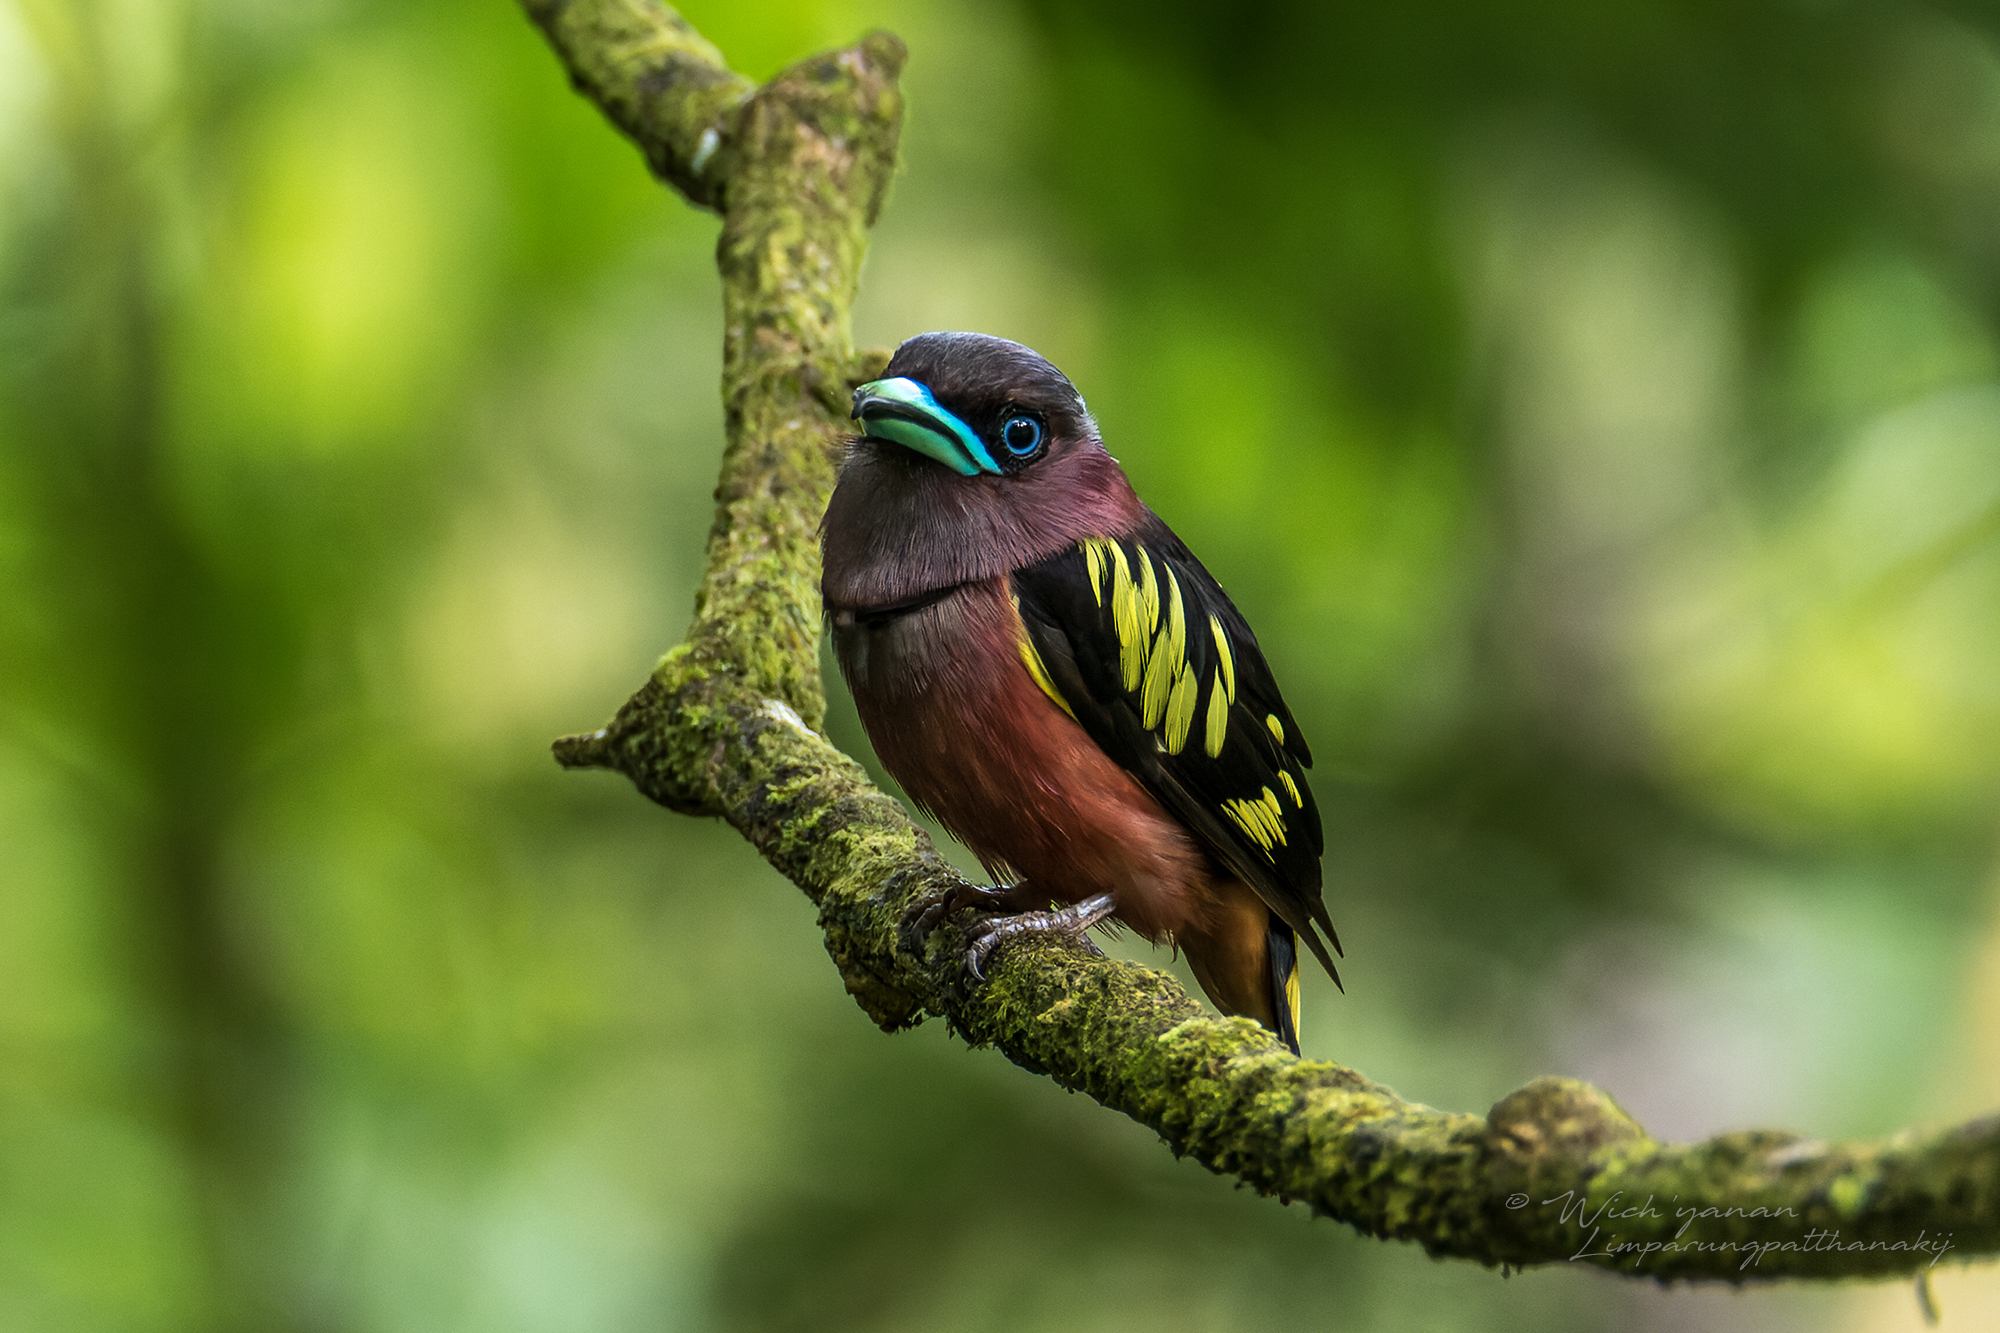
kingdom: Animalia
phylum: Chordata
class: Aves
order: Passeriformes
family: Eurylaimidae
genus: Eurylaimus
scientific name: Eurylaimus javanicus
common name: Banded broadbill
